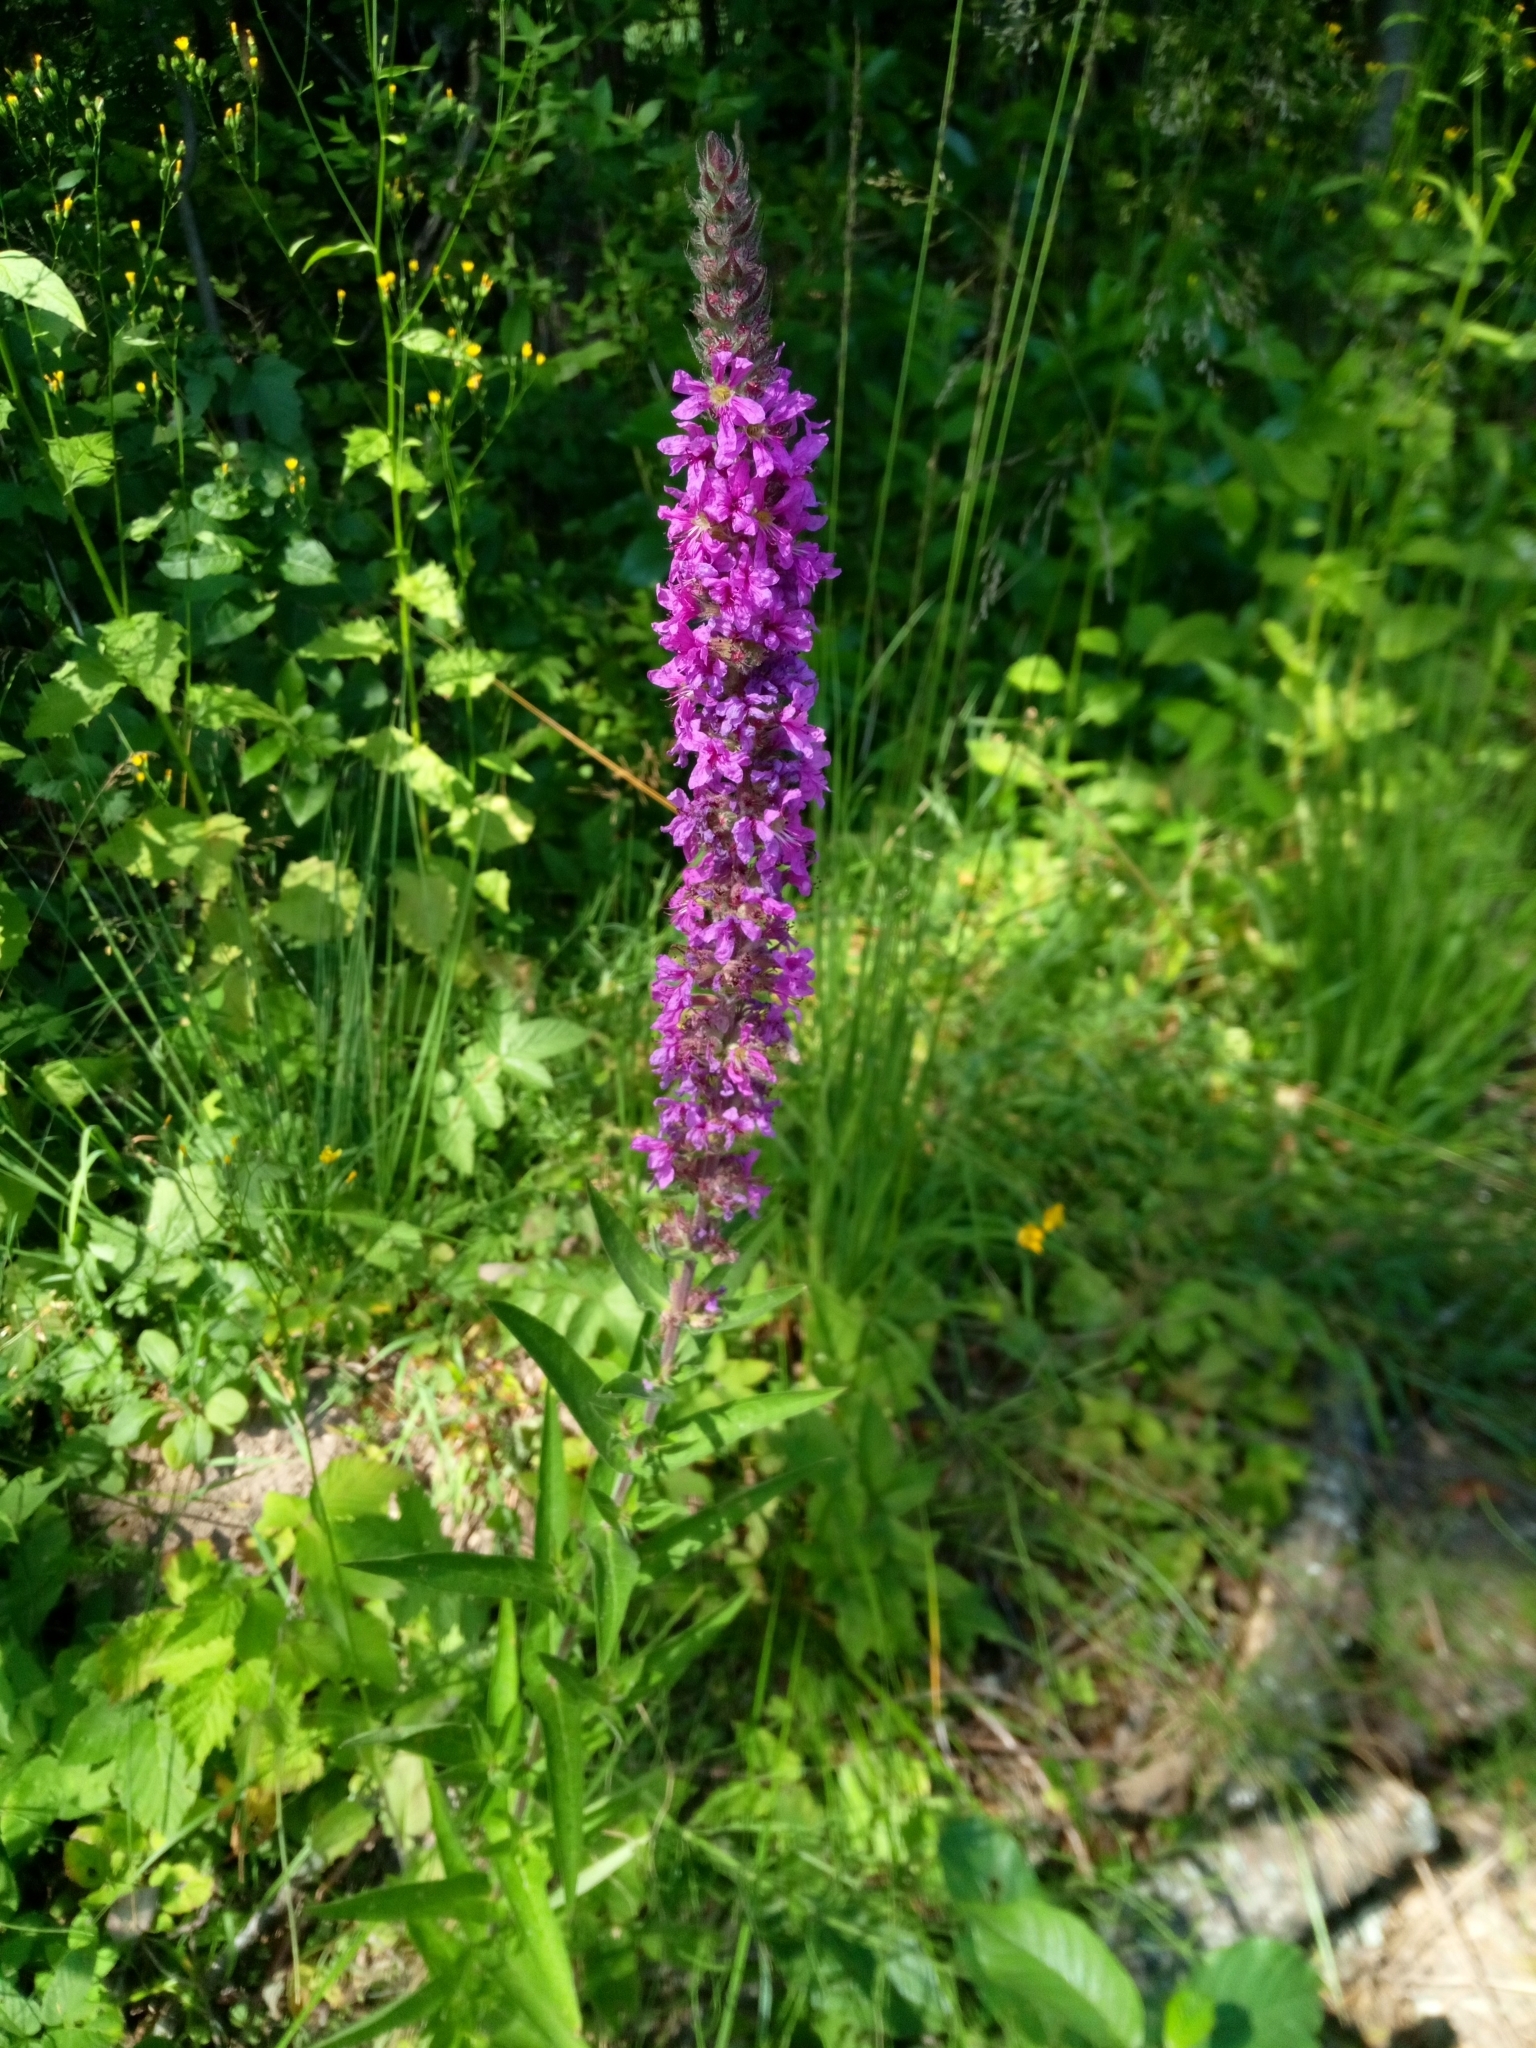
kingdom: Plantae
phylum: Tracheophyta
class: Magnoliopsida
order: Myrtales
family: Lythraceae
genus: Lythrum
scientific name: Lythrum salicaria
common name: Purple loosestrife
